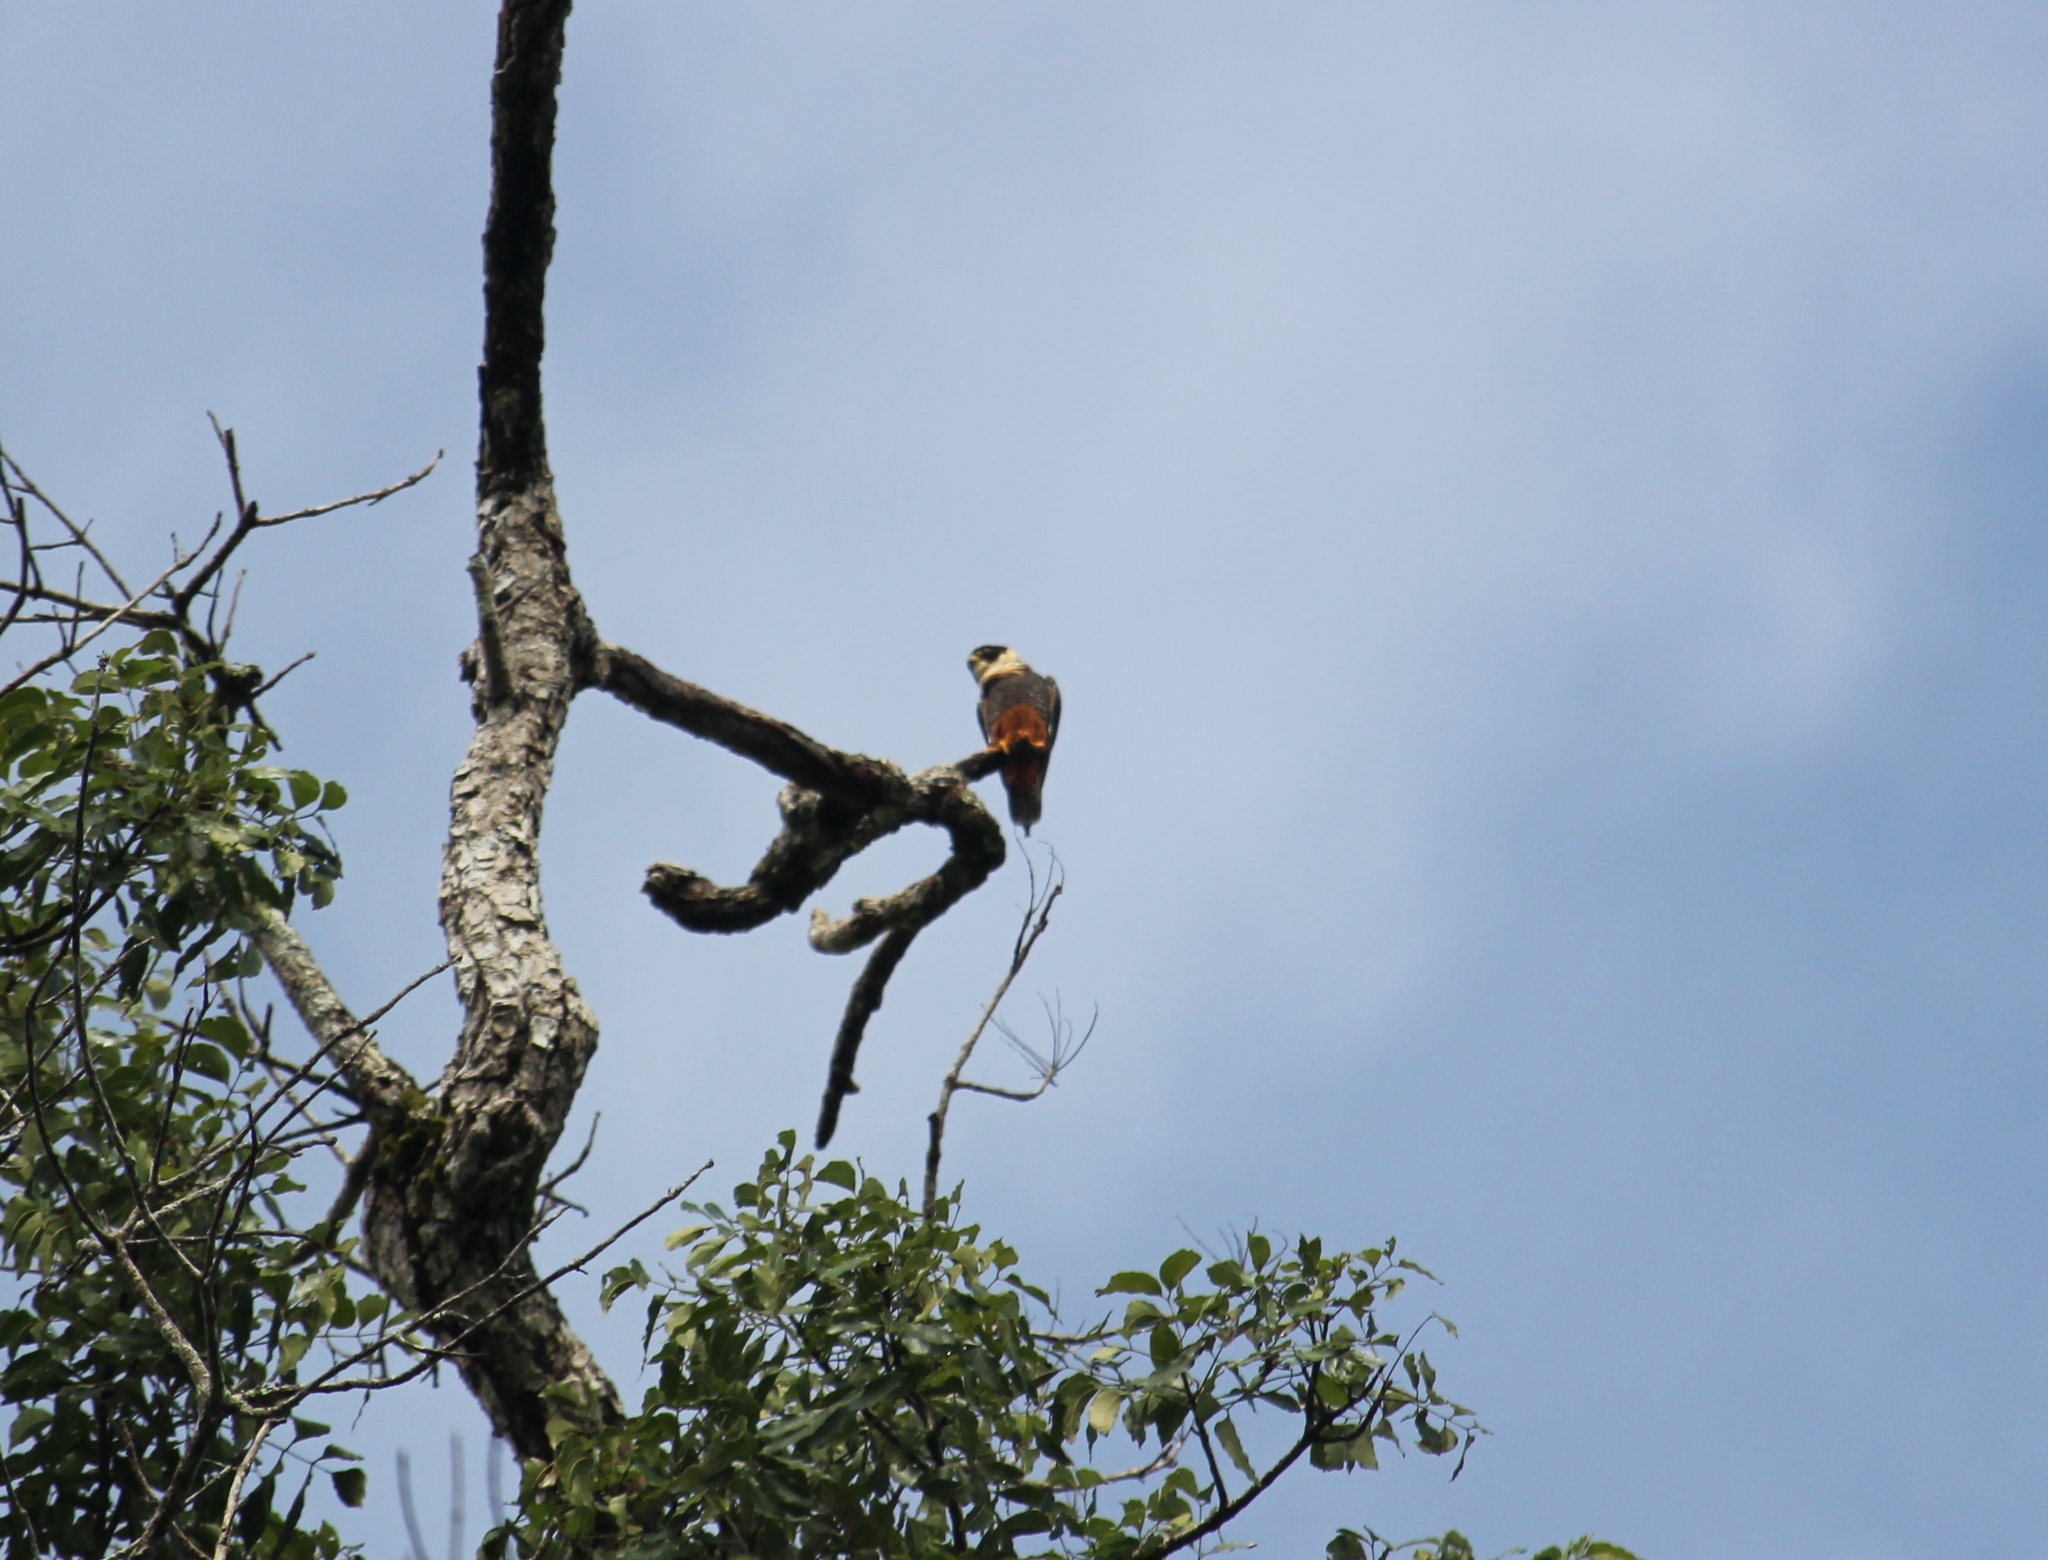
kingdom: Animalia
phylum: Chordata
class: Aves
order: Falconiformes
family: Falconidae
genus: Falco
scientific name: Falco rufigularis
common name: Bat falcon
